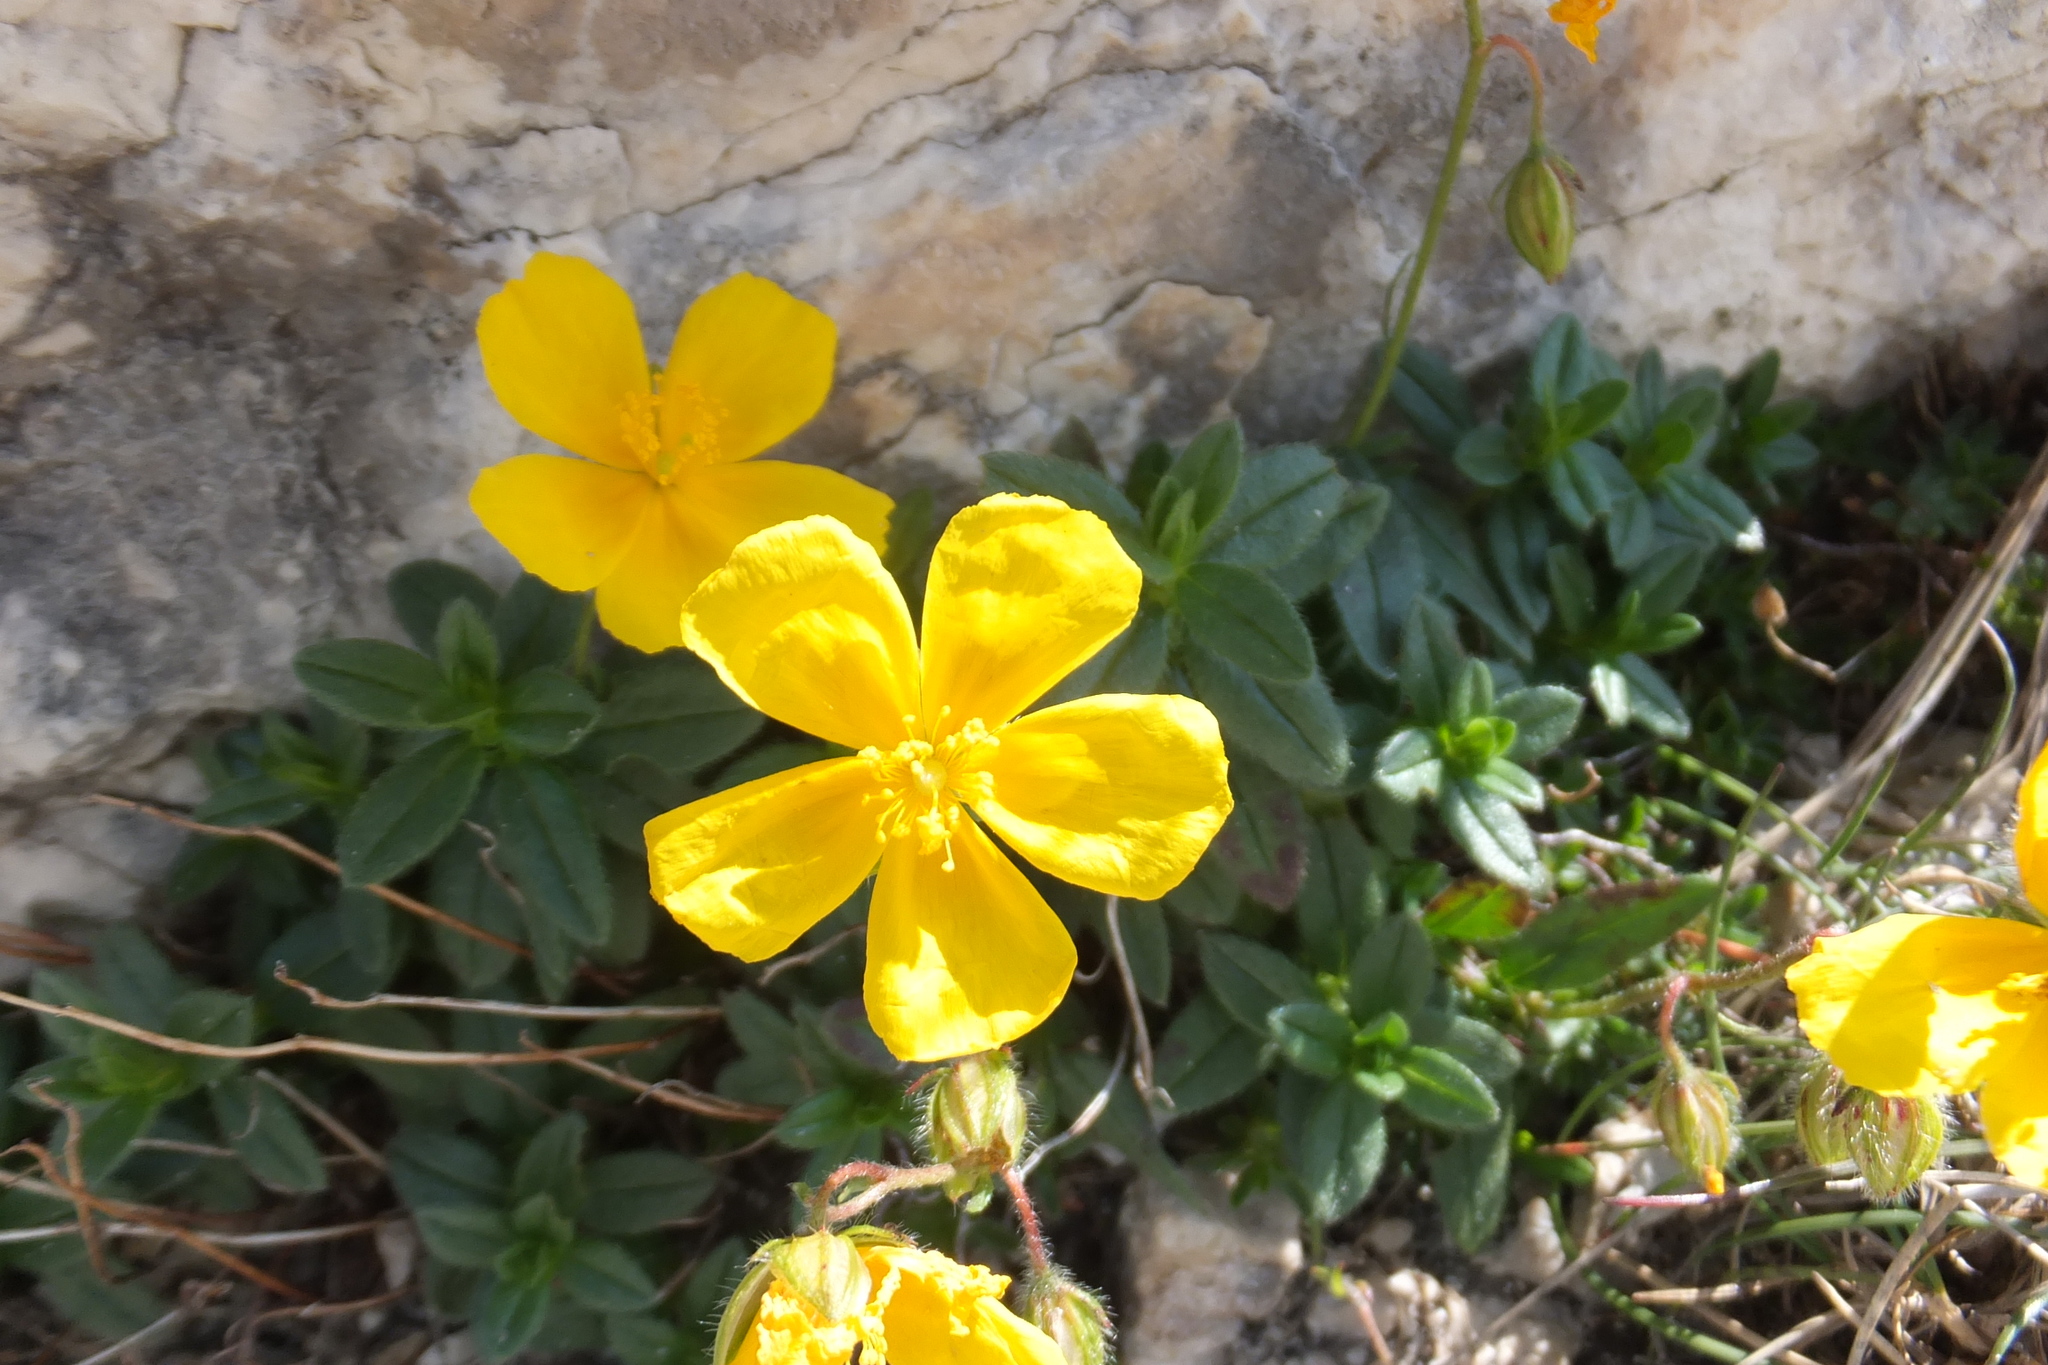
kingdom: Plantae
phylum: Tracheophyta
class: Magnoliopsida
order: Malvales
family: Cistaceae
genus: Helianthemum
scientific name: Helianthemum nummularium
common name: Common rock-rose
